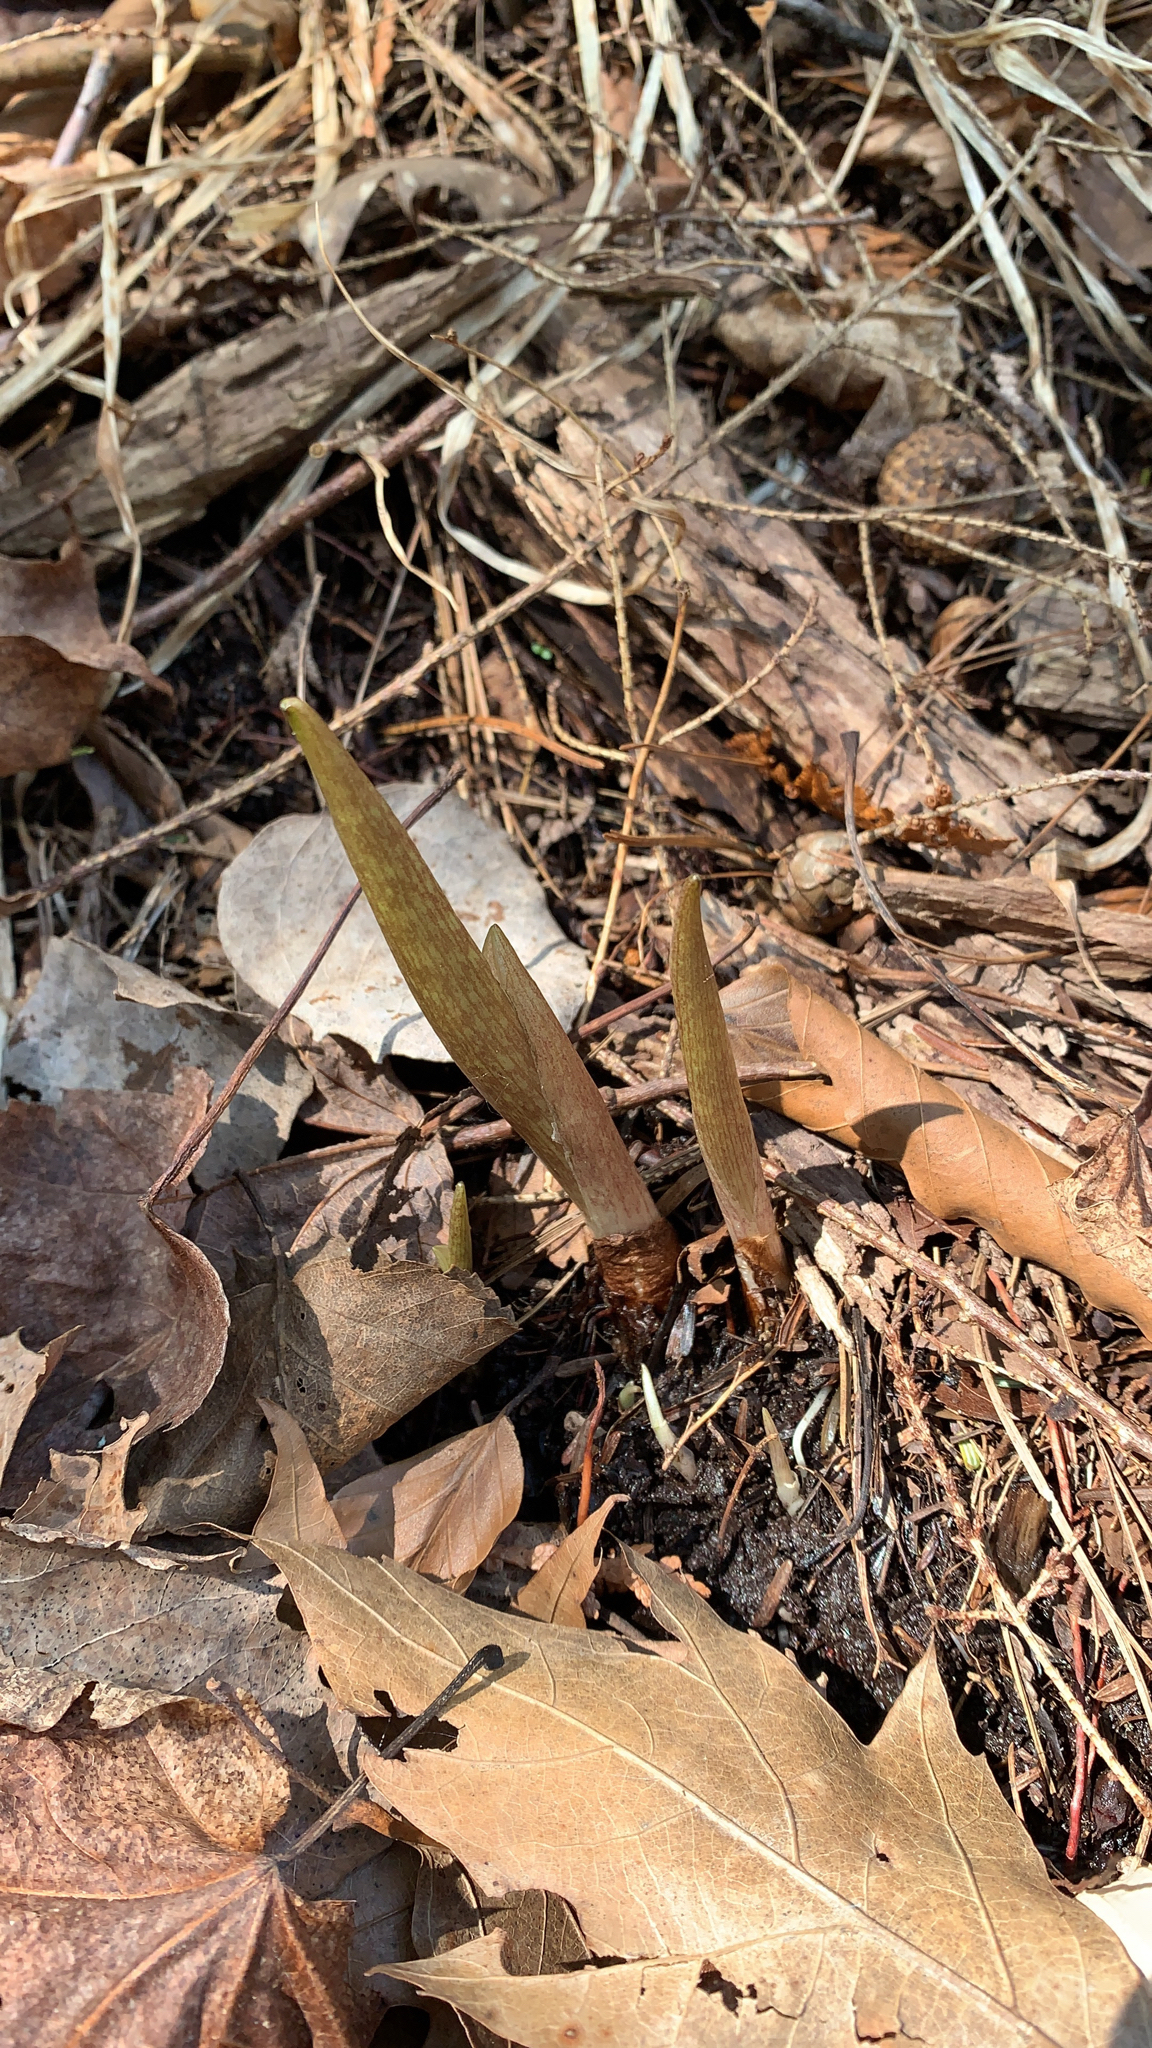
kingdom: Plantae
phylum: Tracheophyta
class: Liliopsida
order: Alismatales
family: Araceae
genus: Arisaema
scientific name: Arisaema triphyllum
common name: Jack-in-the-pulpit
